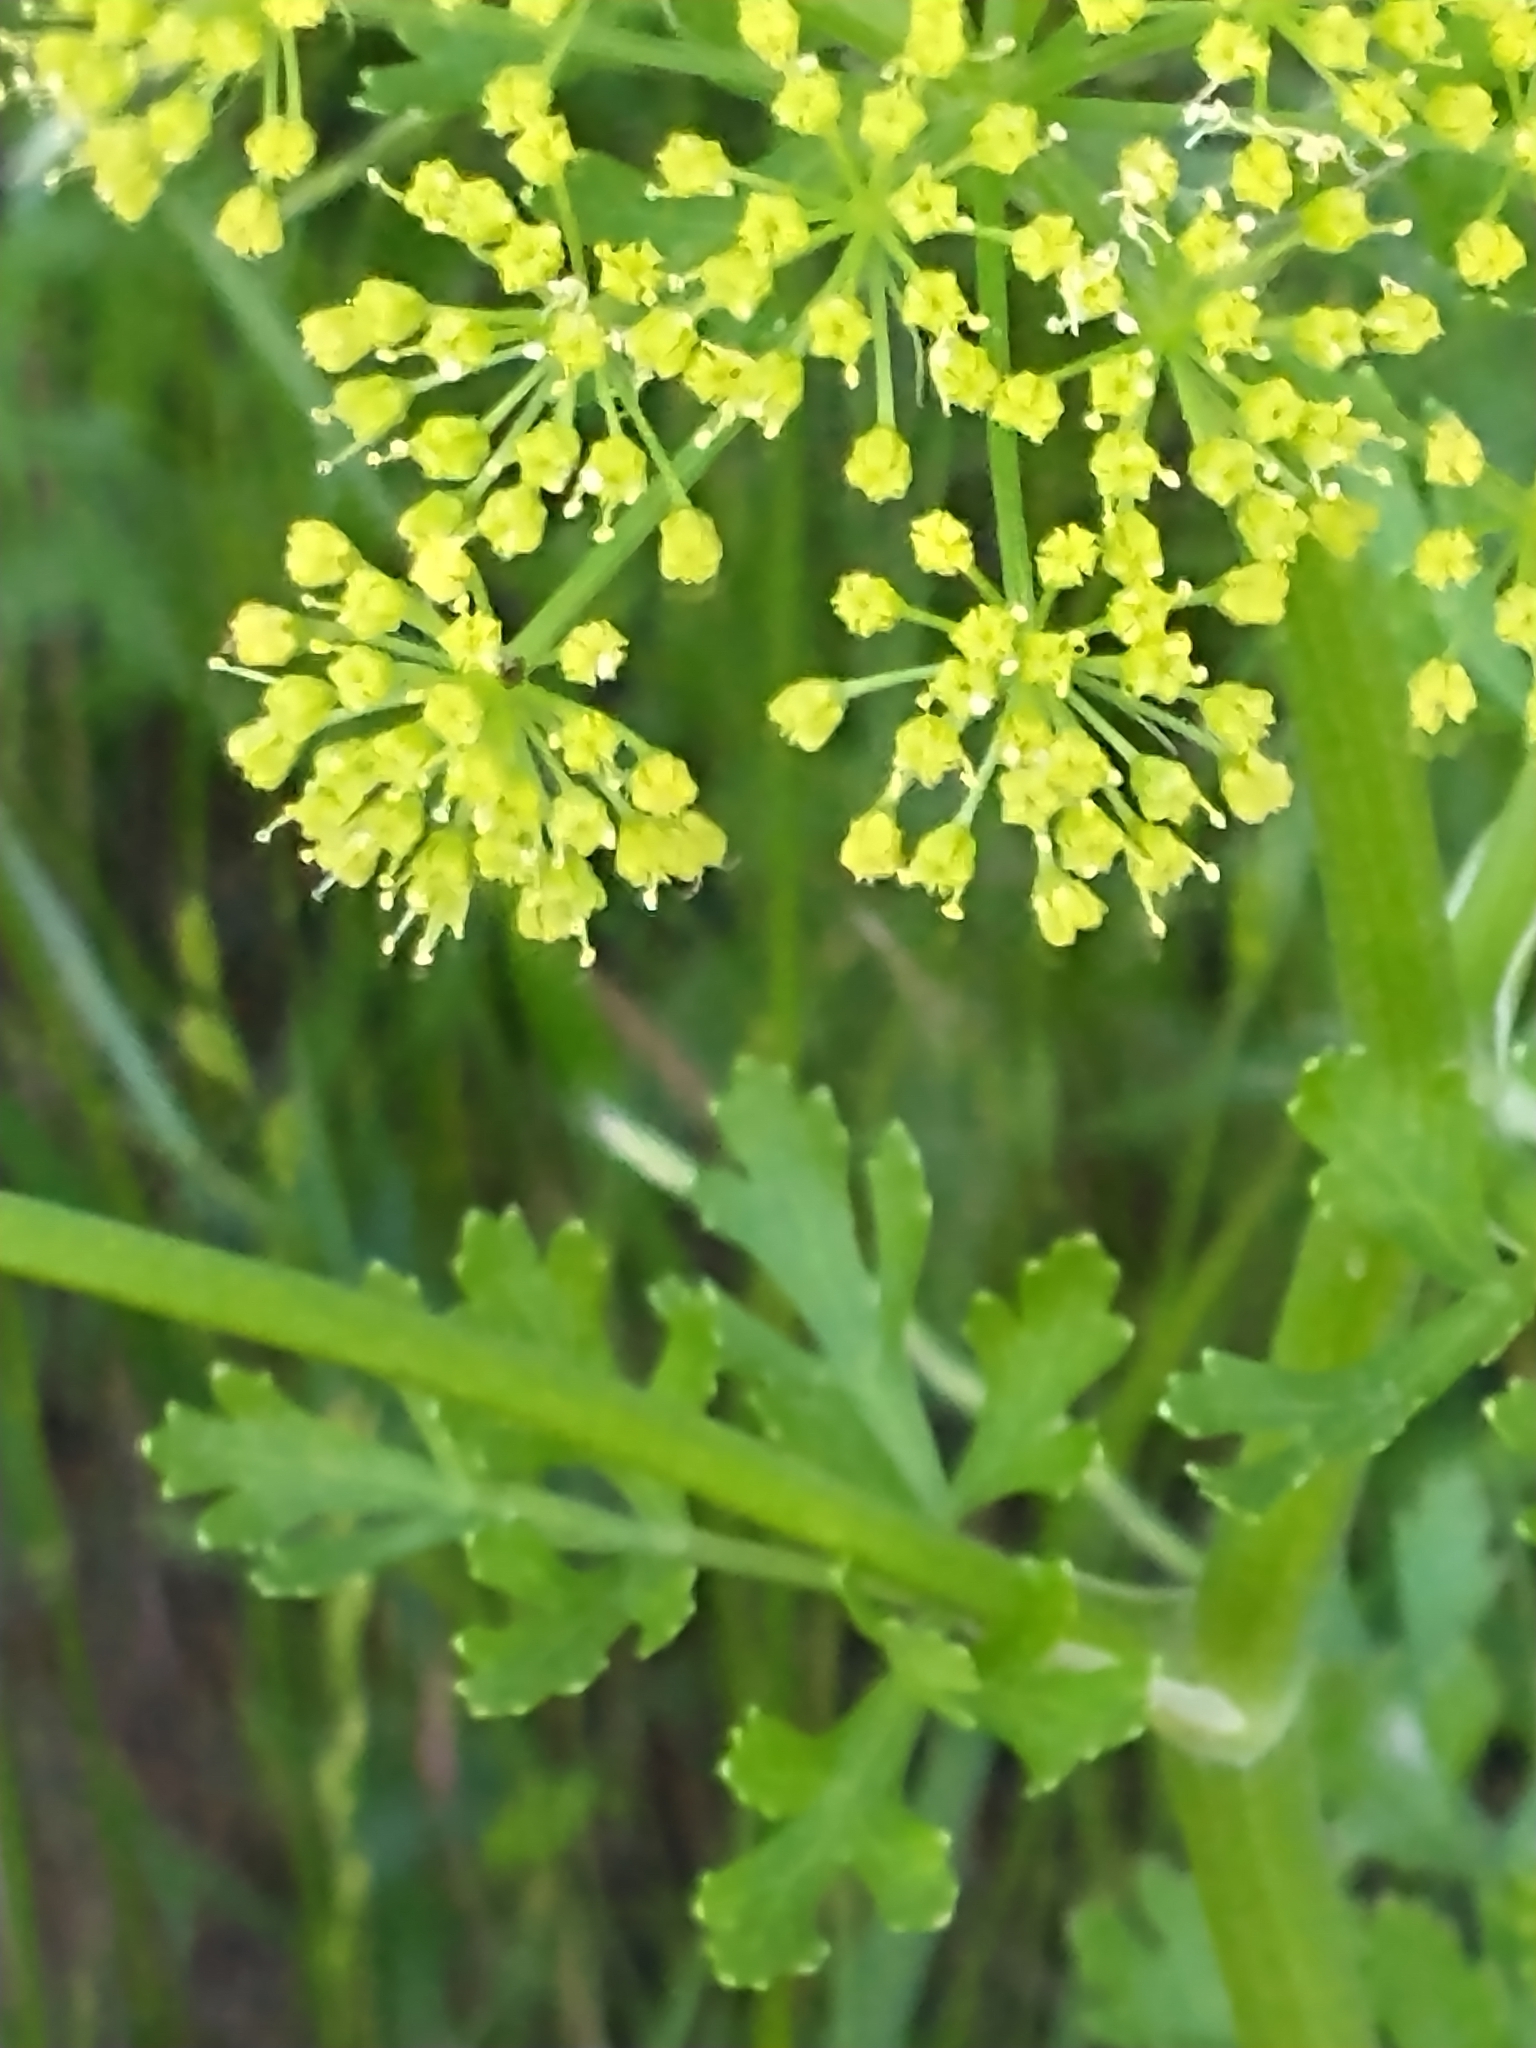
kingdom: Plantae
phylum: Tracheophyta
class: Magnoliopsida
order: Apiales
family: Apiaceae
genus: Polytaenia
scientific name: Polytaenia texana
